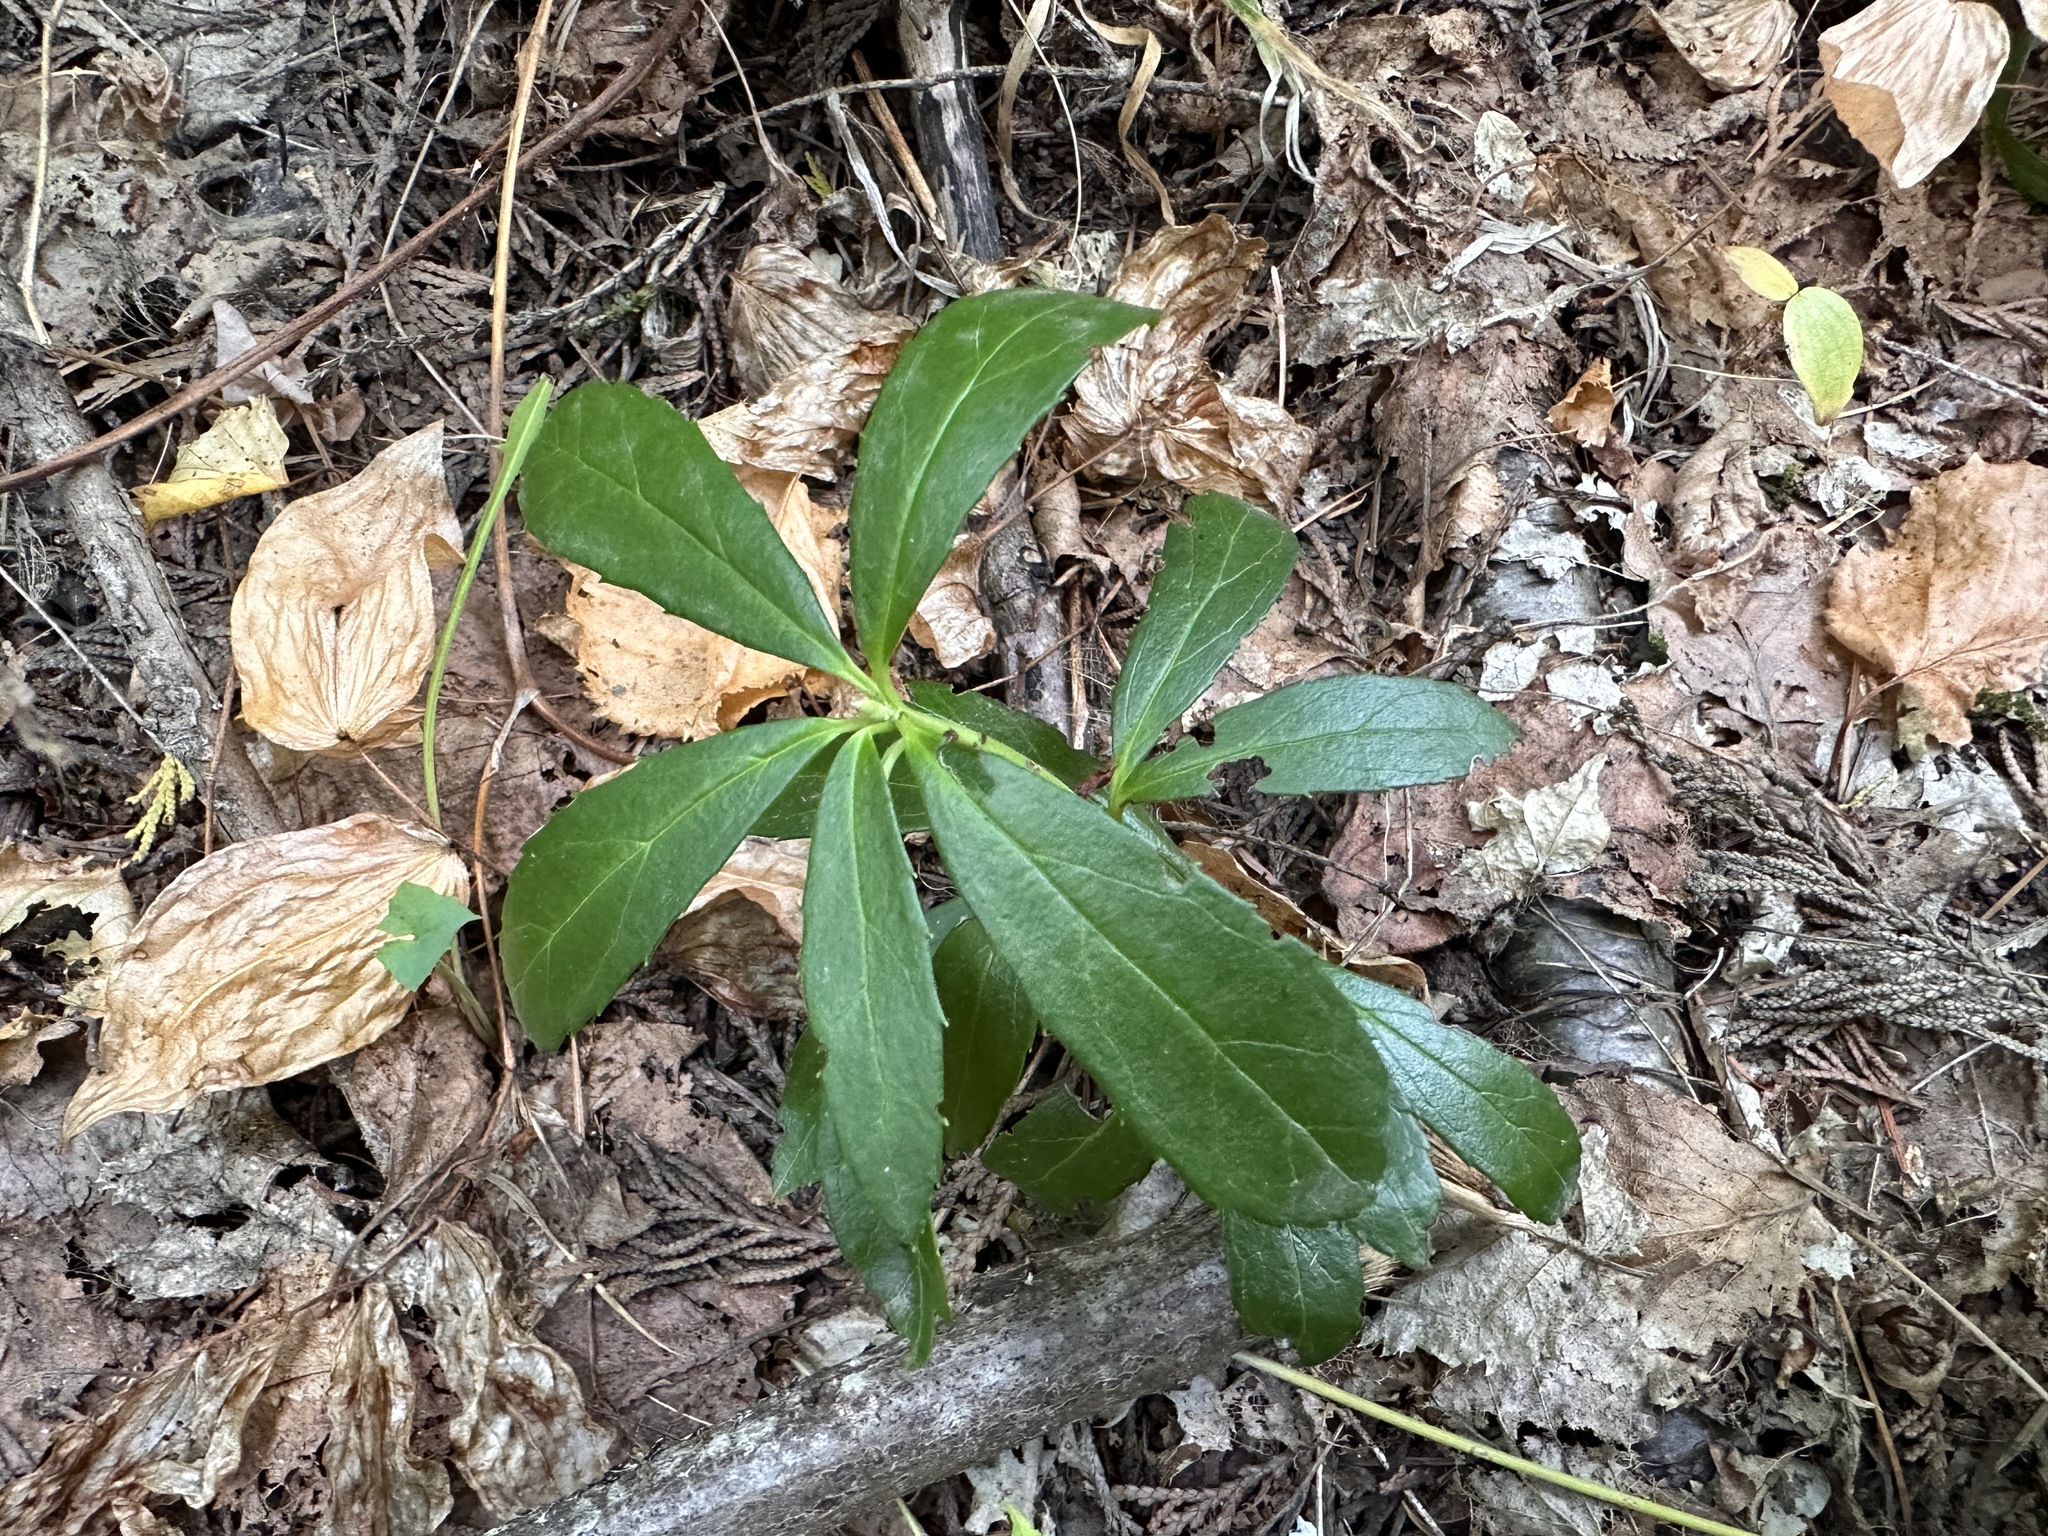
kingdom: Plantae
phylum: Tracheophyta
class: Magnoliopsida
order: Ericales
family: Ericaceae
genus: Chimaphila
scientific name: Chimaphila umbellata
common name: Pipsissewa
